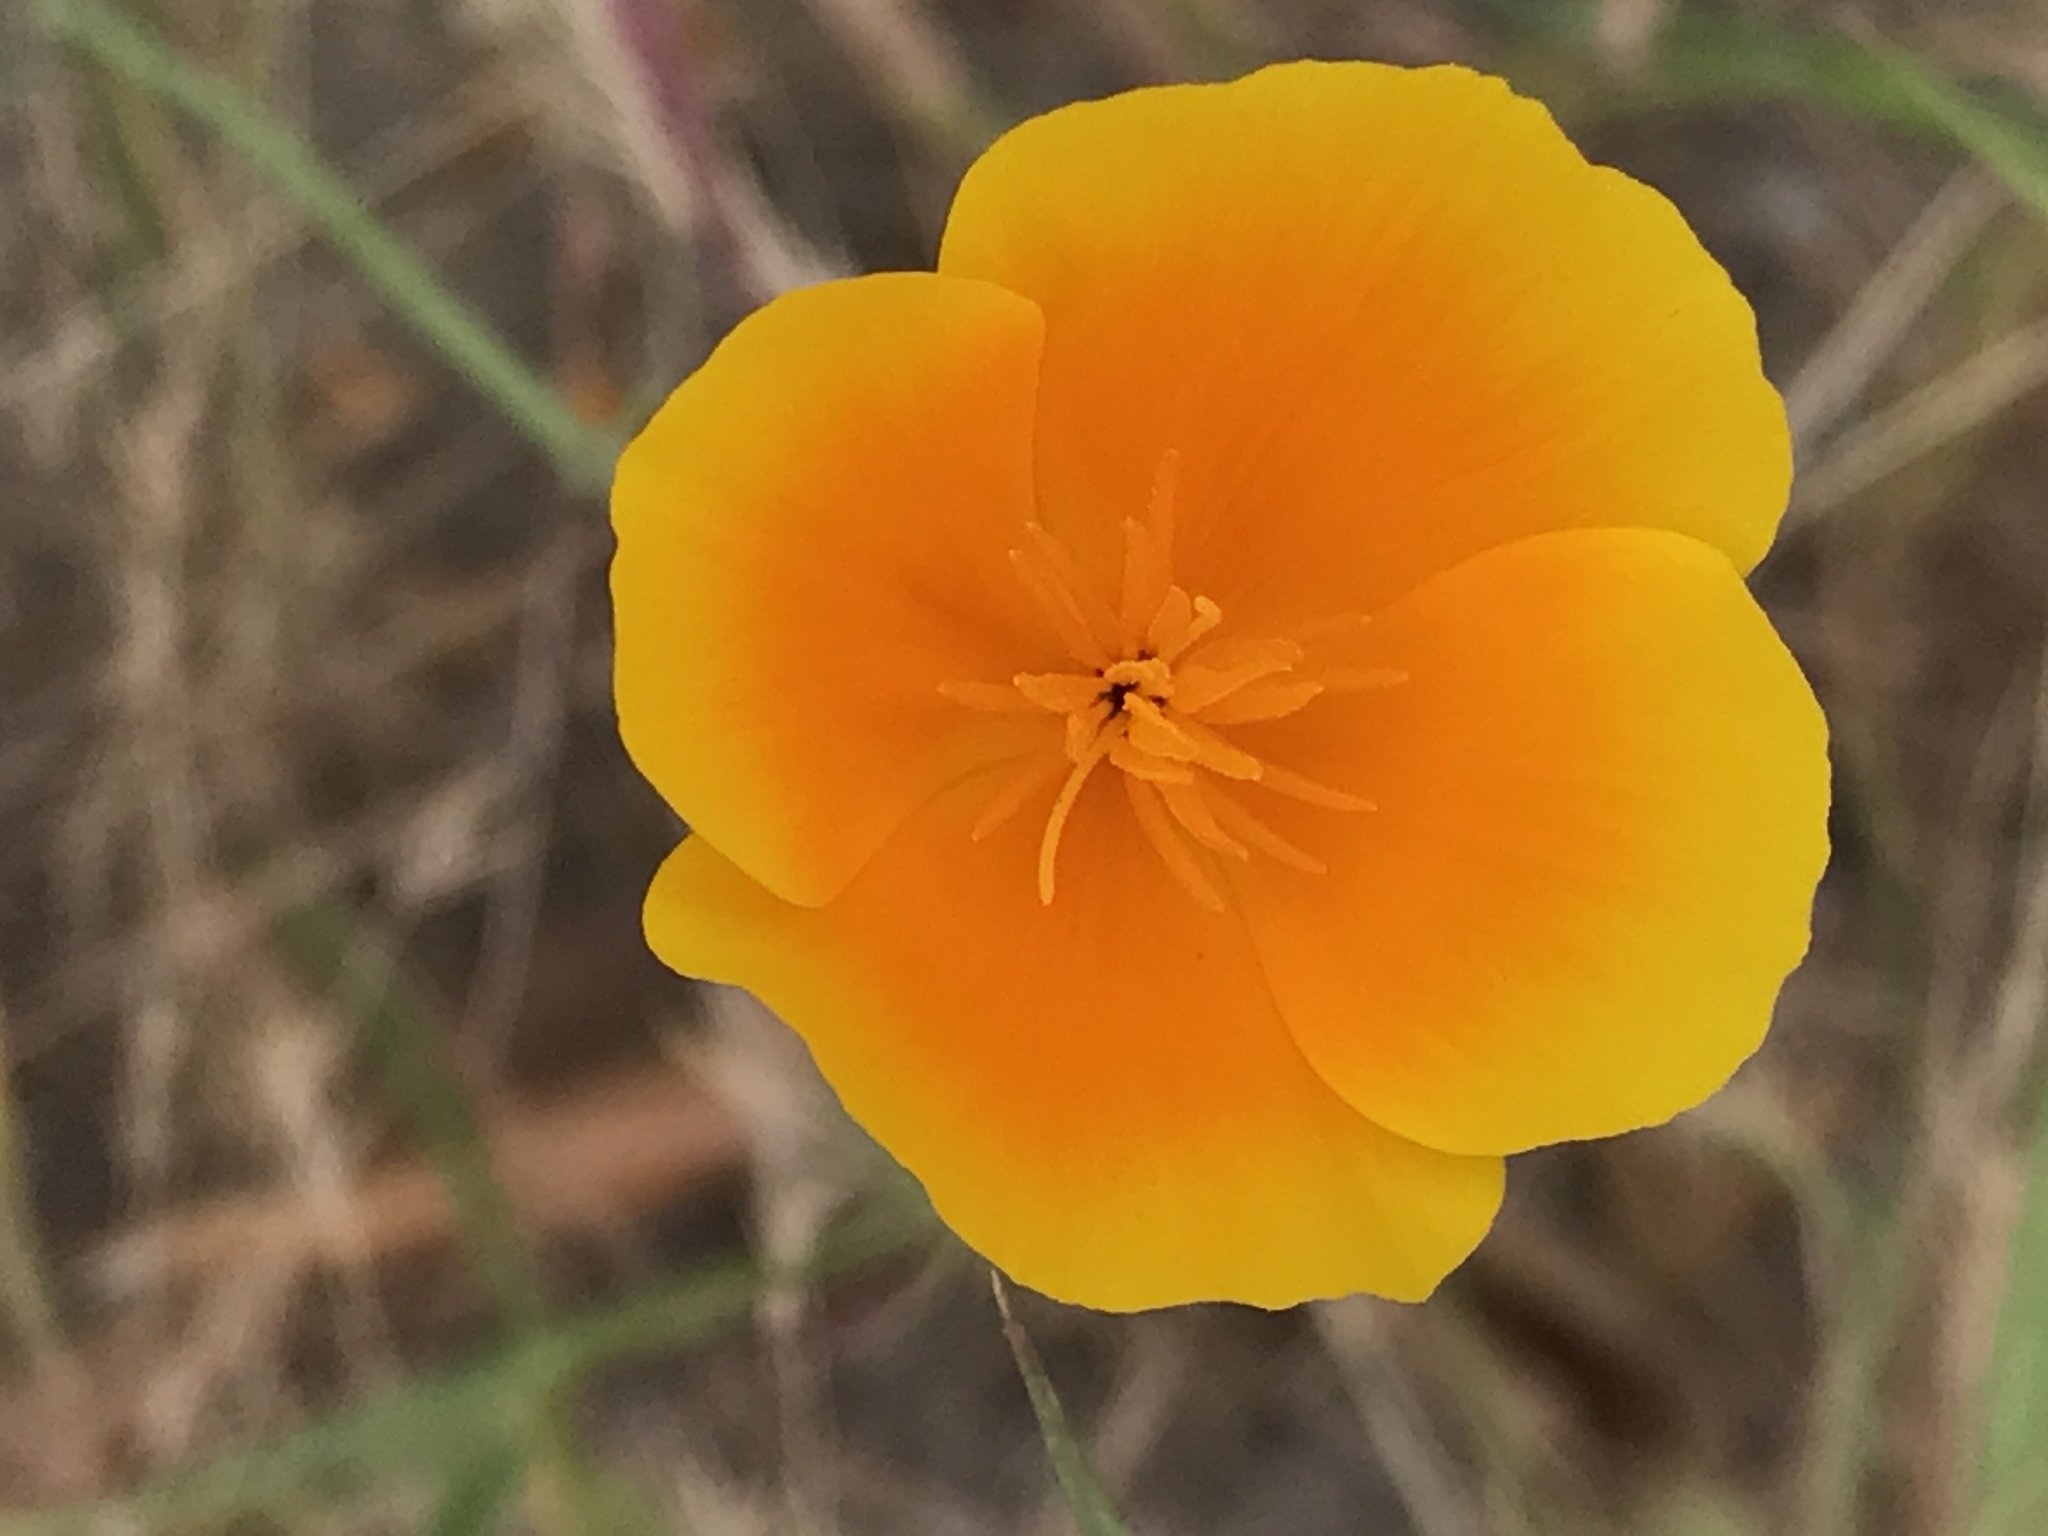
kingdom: Plantae
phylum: Tracheophyta
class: Magnoliopsida
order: Ranunculales
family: Papaveraceae
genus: Eschscholzia
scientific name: Eschscholzia californica
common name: California poppy
